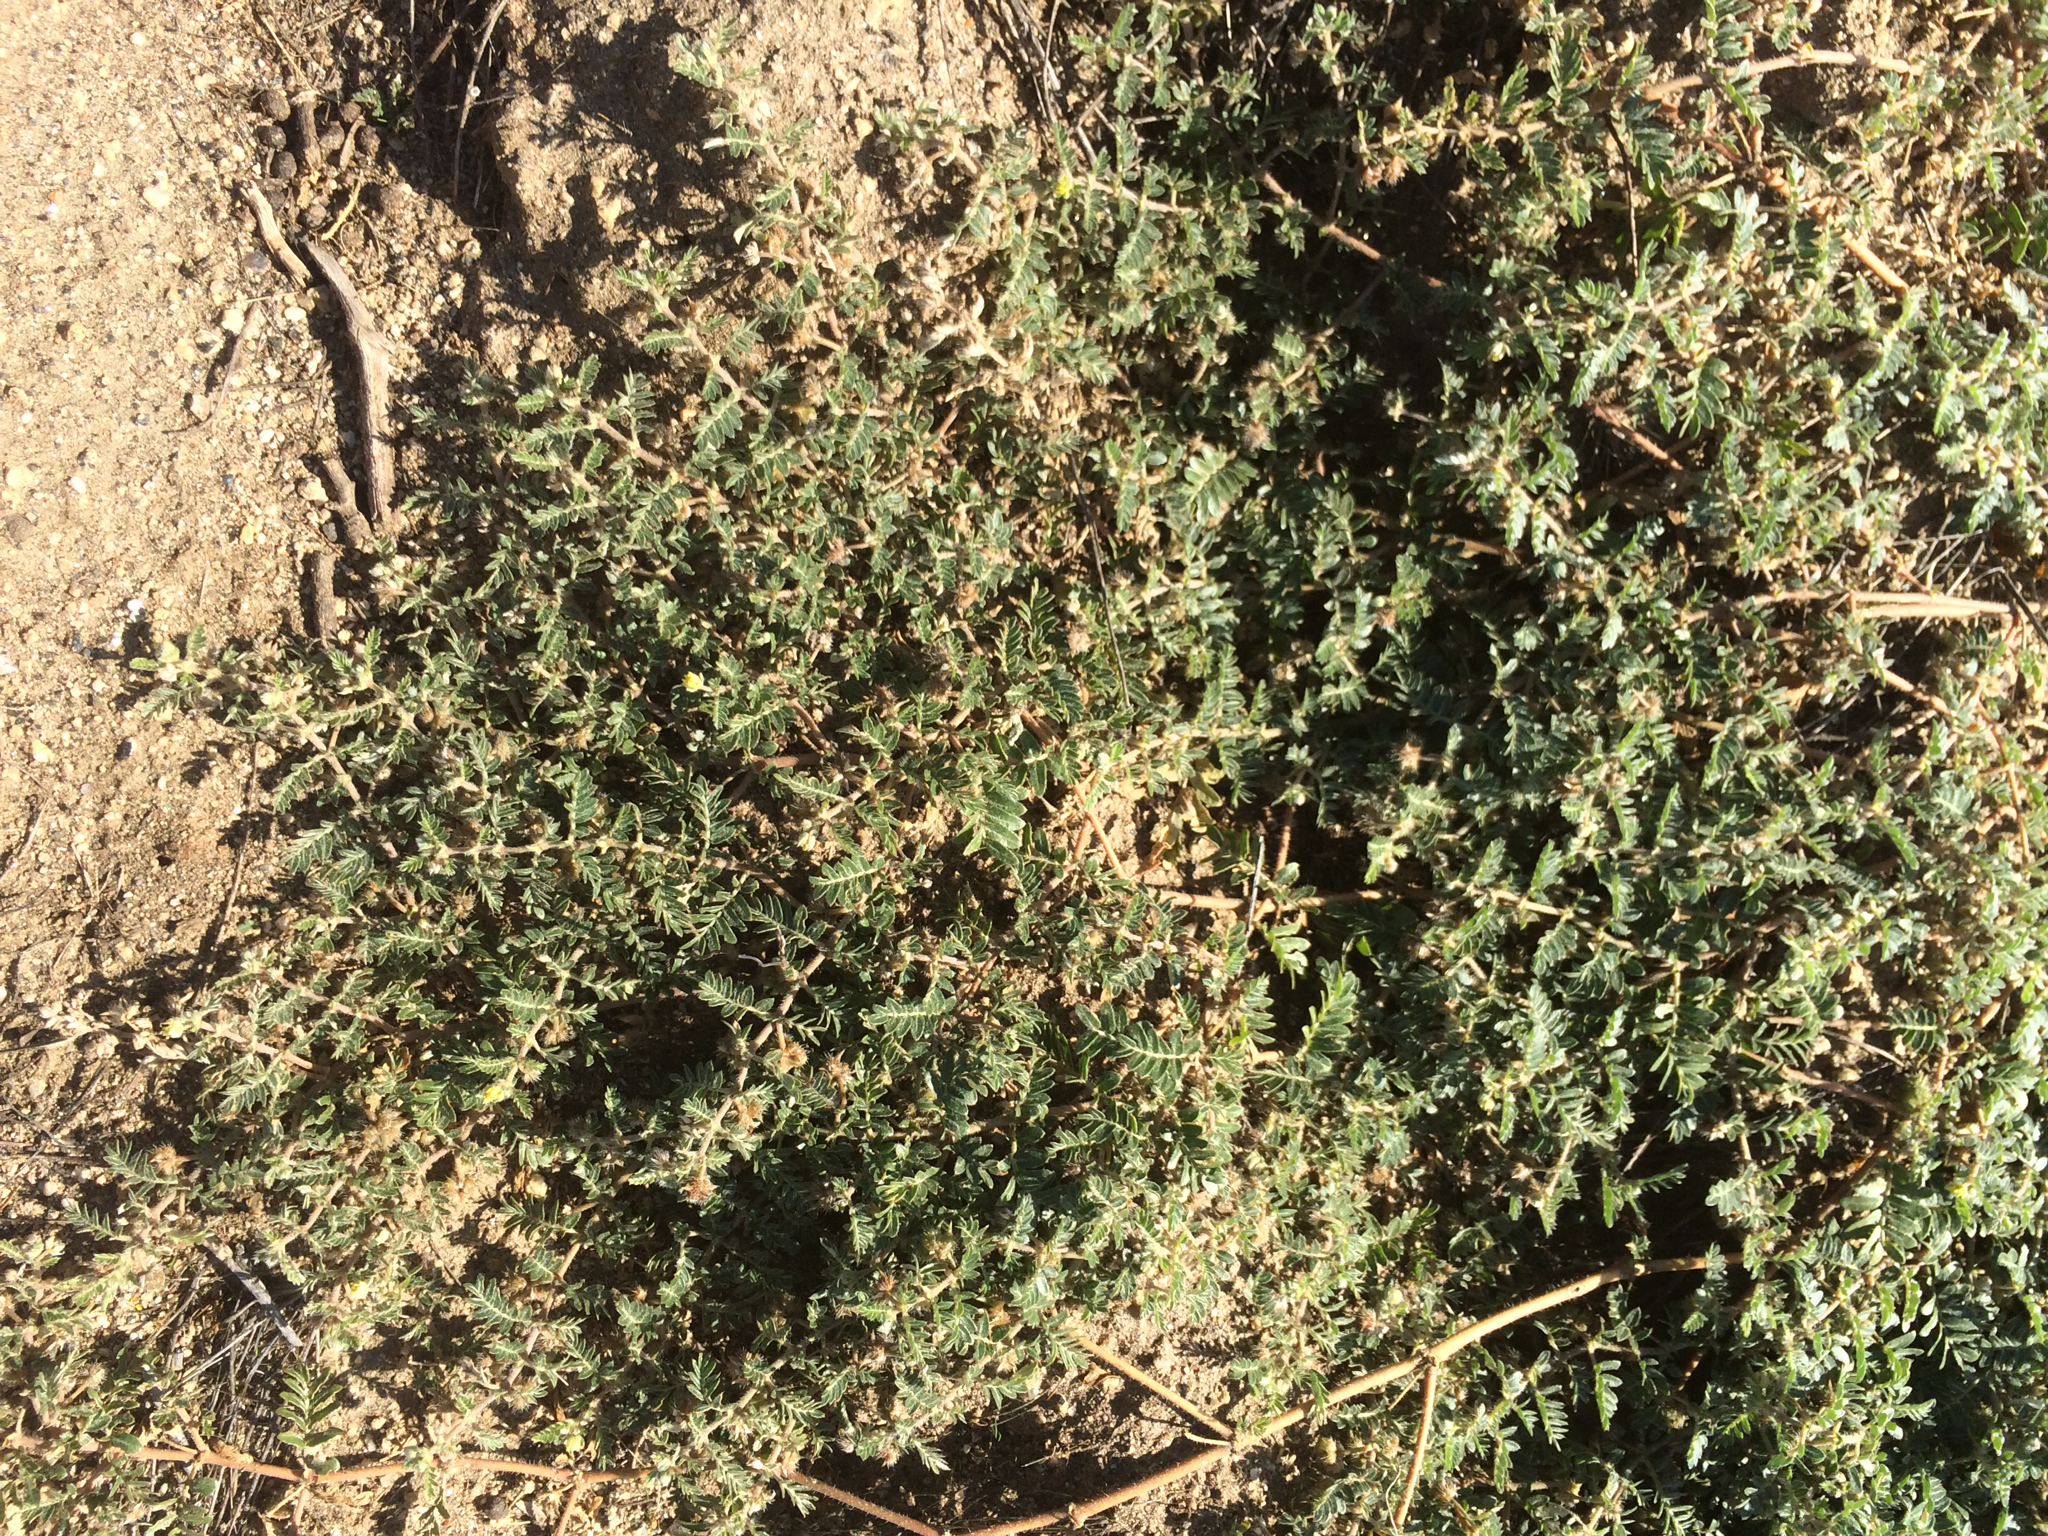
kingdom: Plantae
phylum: Tracheophyta
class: Magnoliopsida
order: Zygophyllales
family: Zygophyllaceae
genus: Tribulus
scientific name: Tribulus terrestris
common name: Puncturevine
